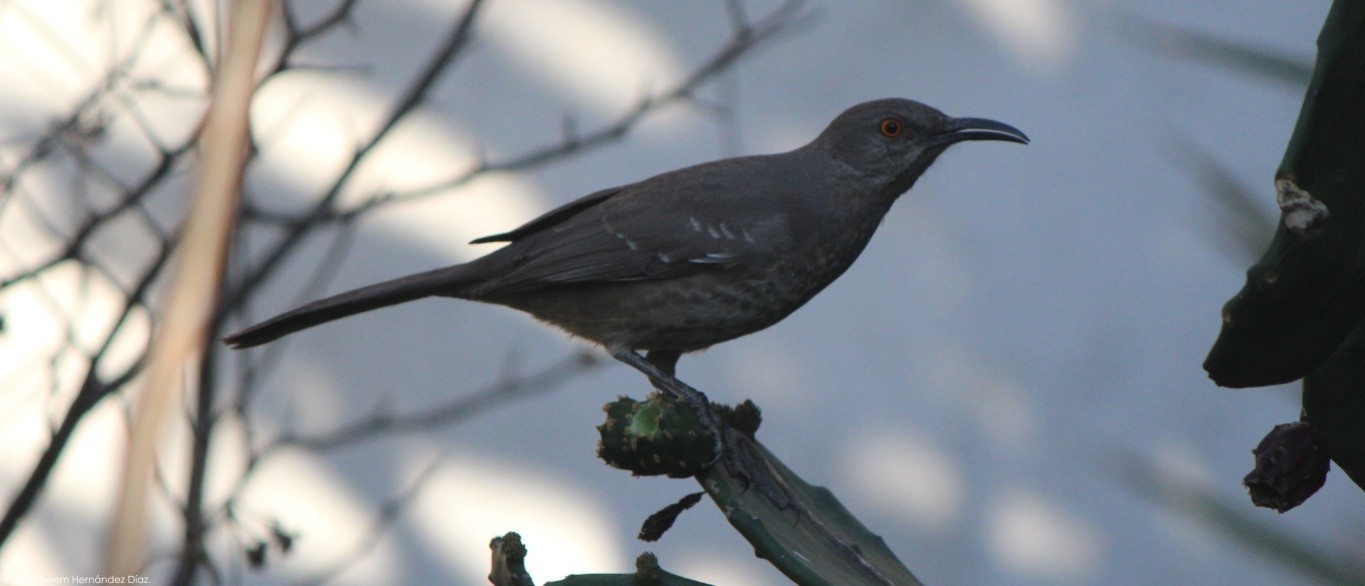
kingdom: Animalia
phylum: Chordata
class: Aves
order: Passeriformes
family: Mimidae
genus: Toxostoma
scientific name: Toxostoma curvirostre
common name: Curve-billed thrasher
